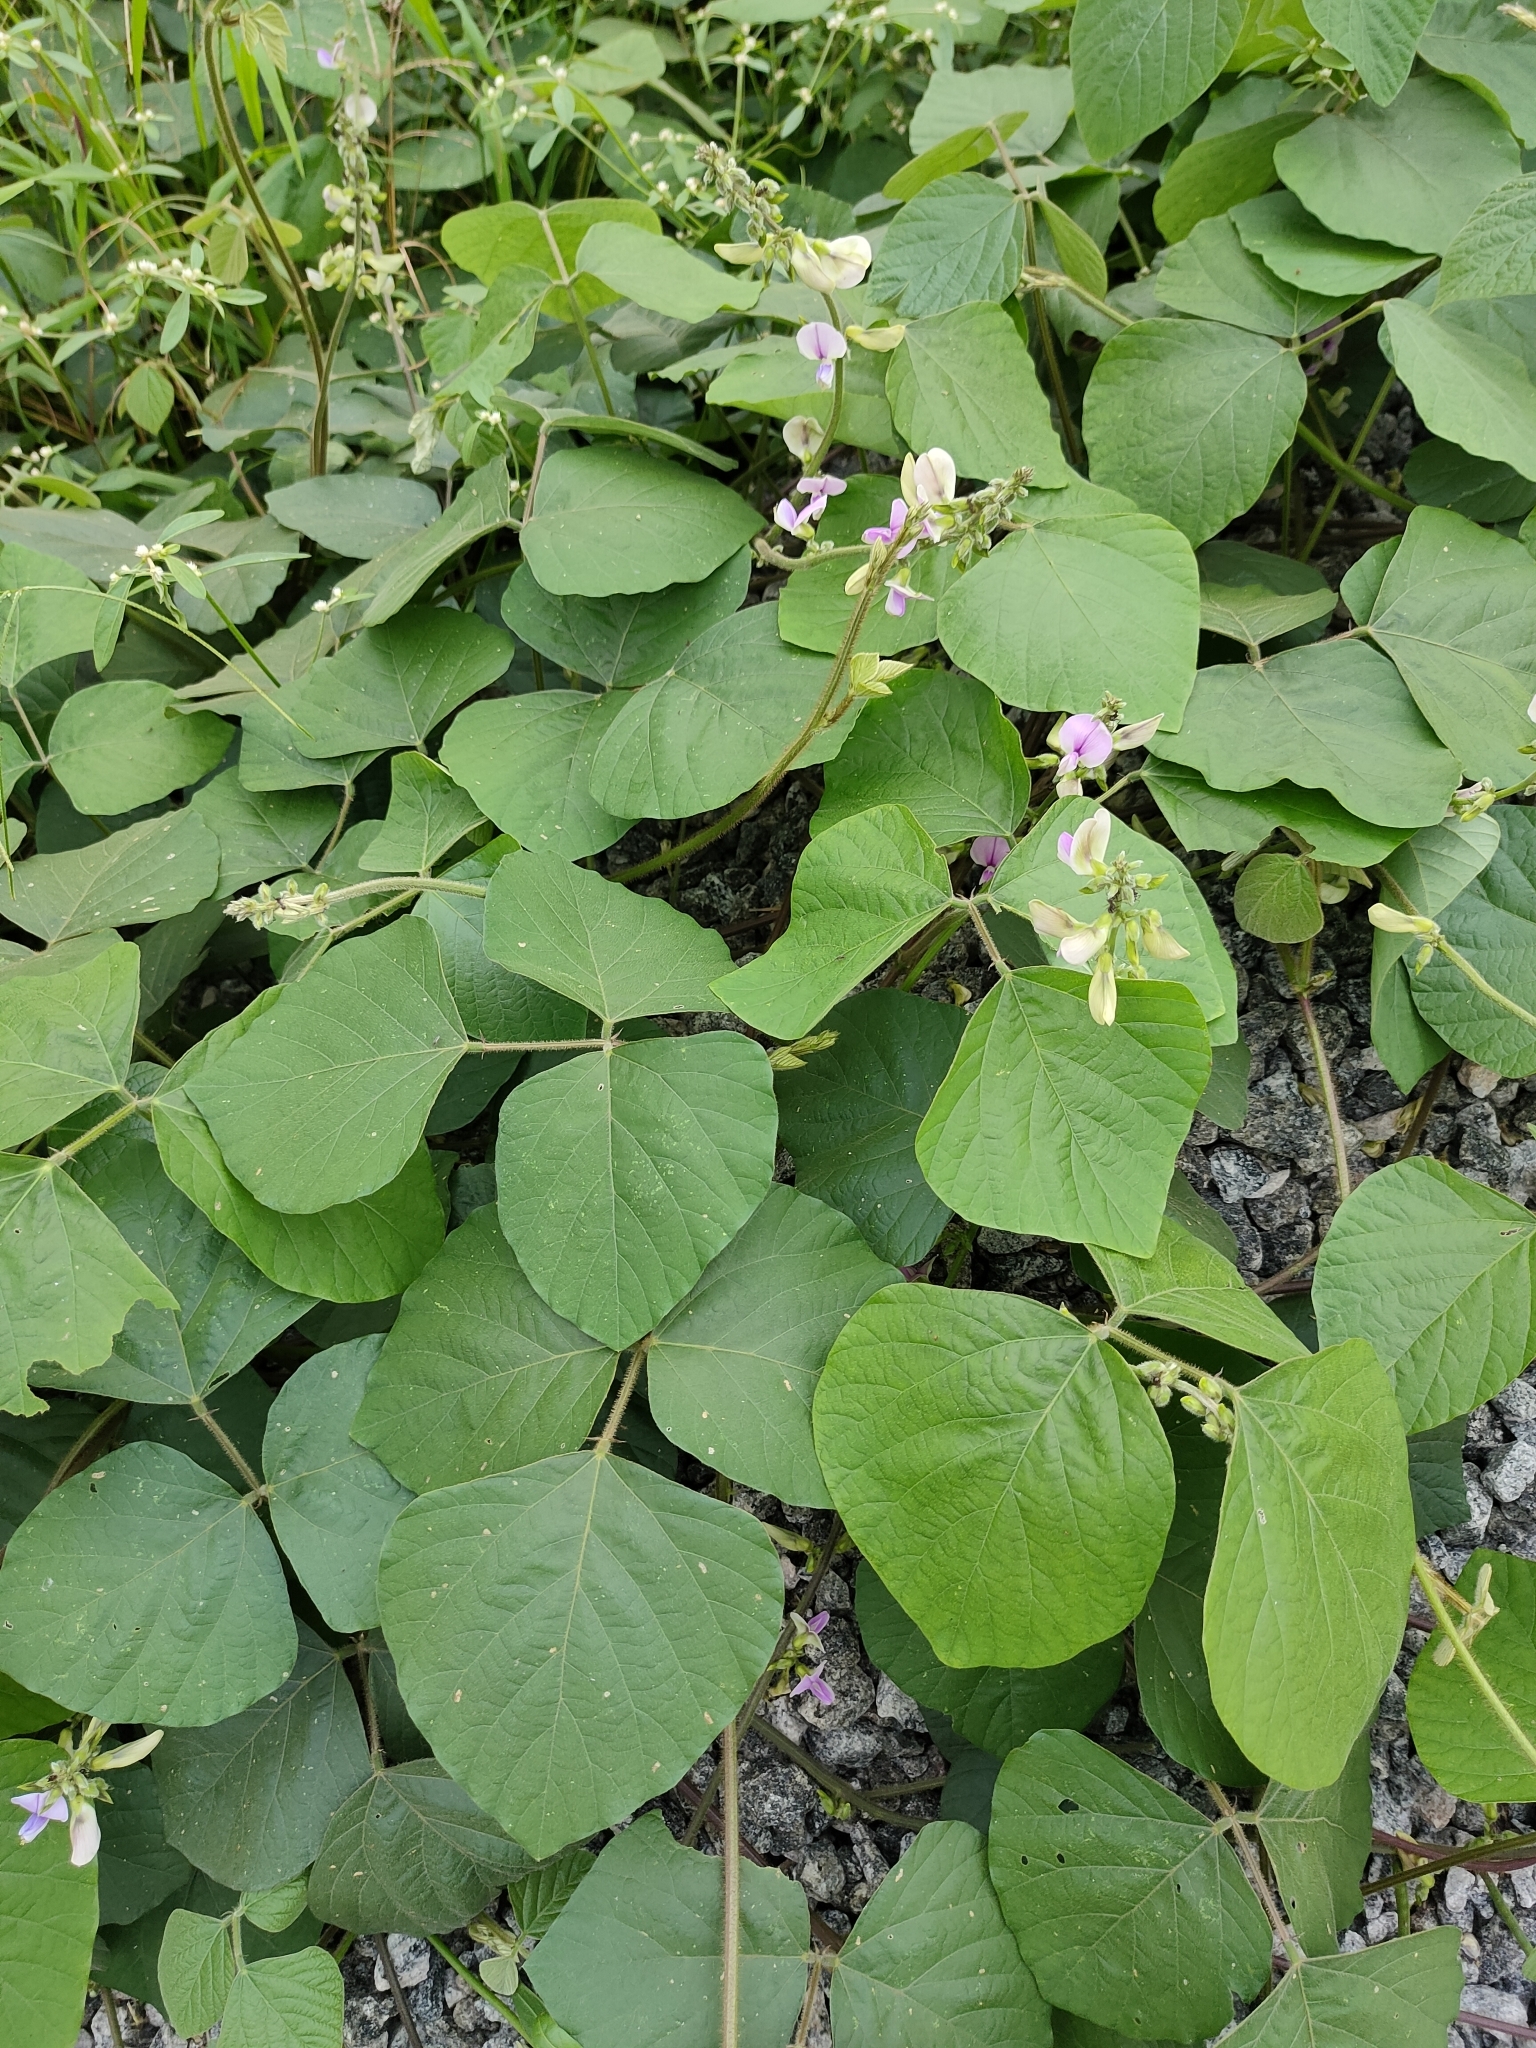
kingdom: Plantae
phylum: Tracheophyta
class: Magnoliopsida
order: Fabales
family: Fabaceae
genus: Neustanthus
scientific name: Neustanthus phaseoloides
